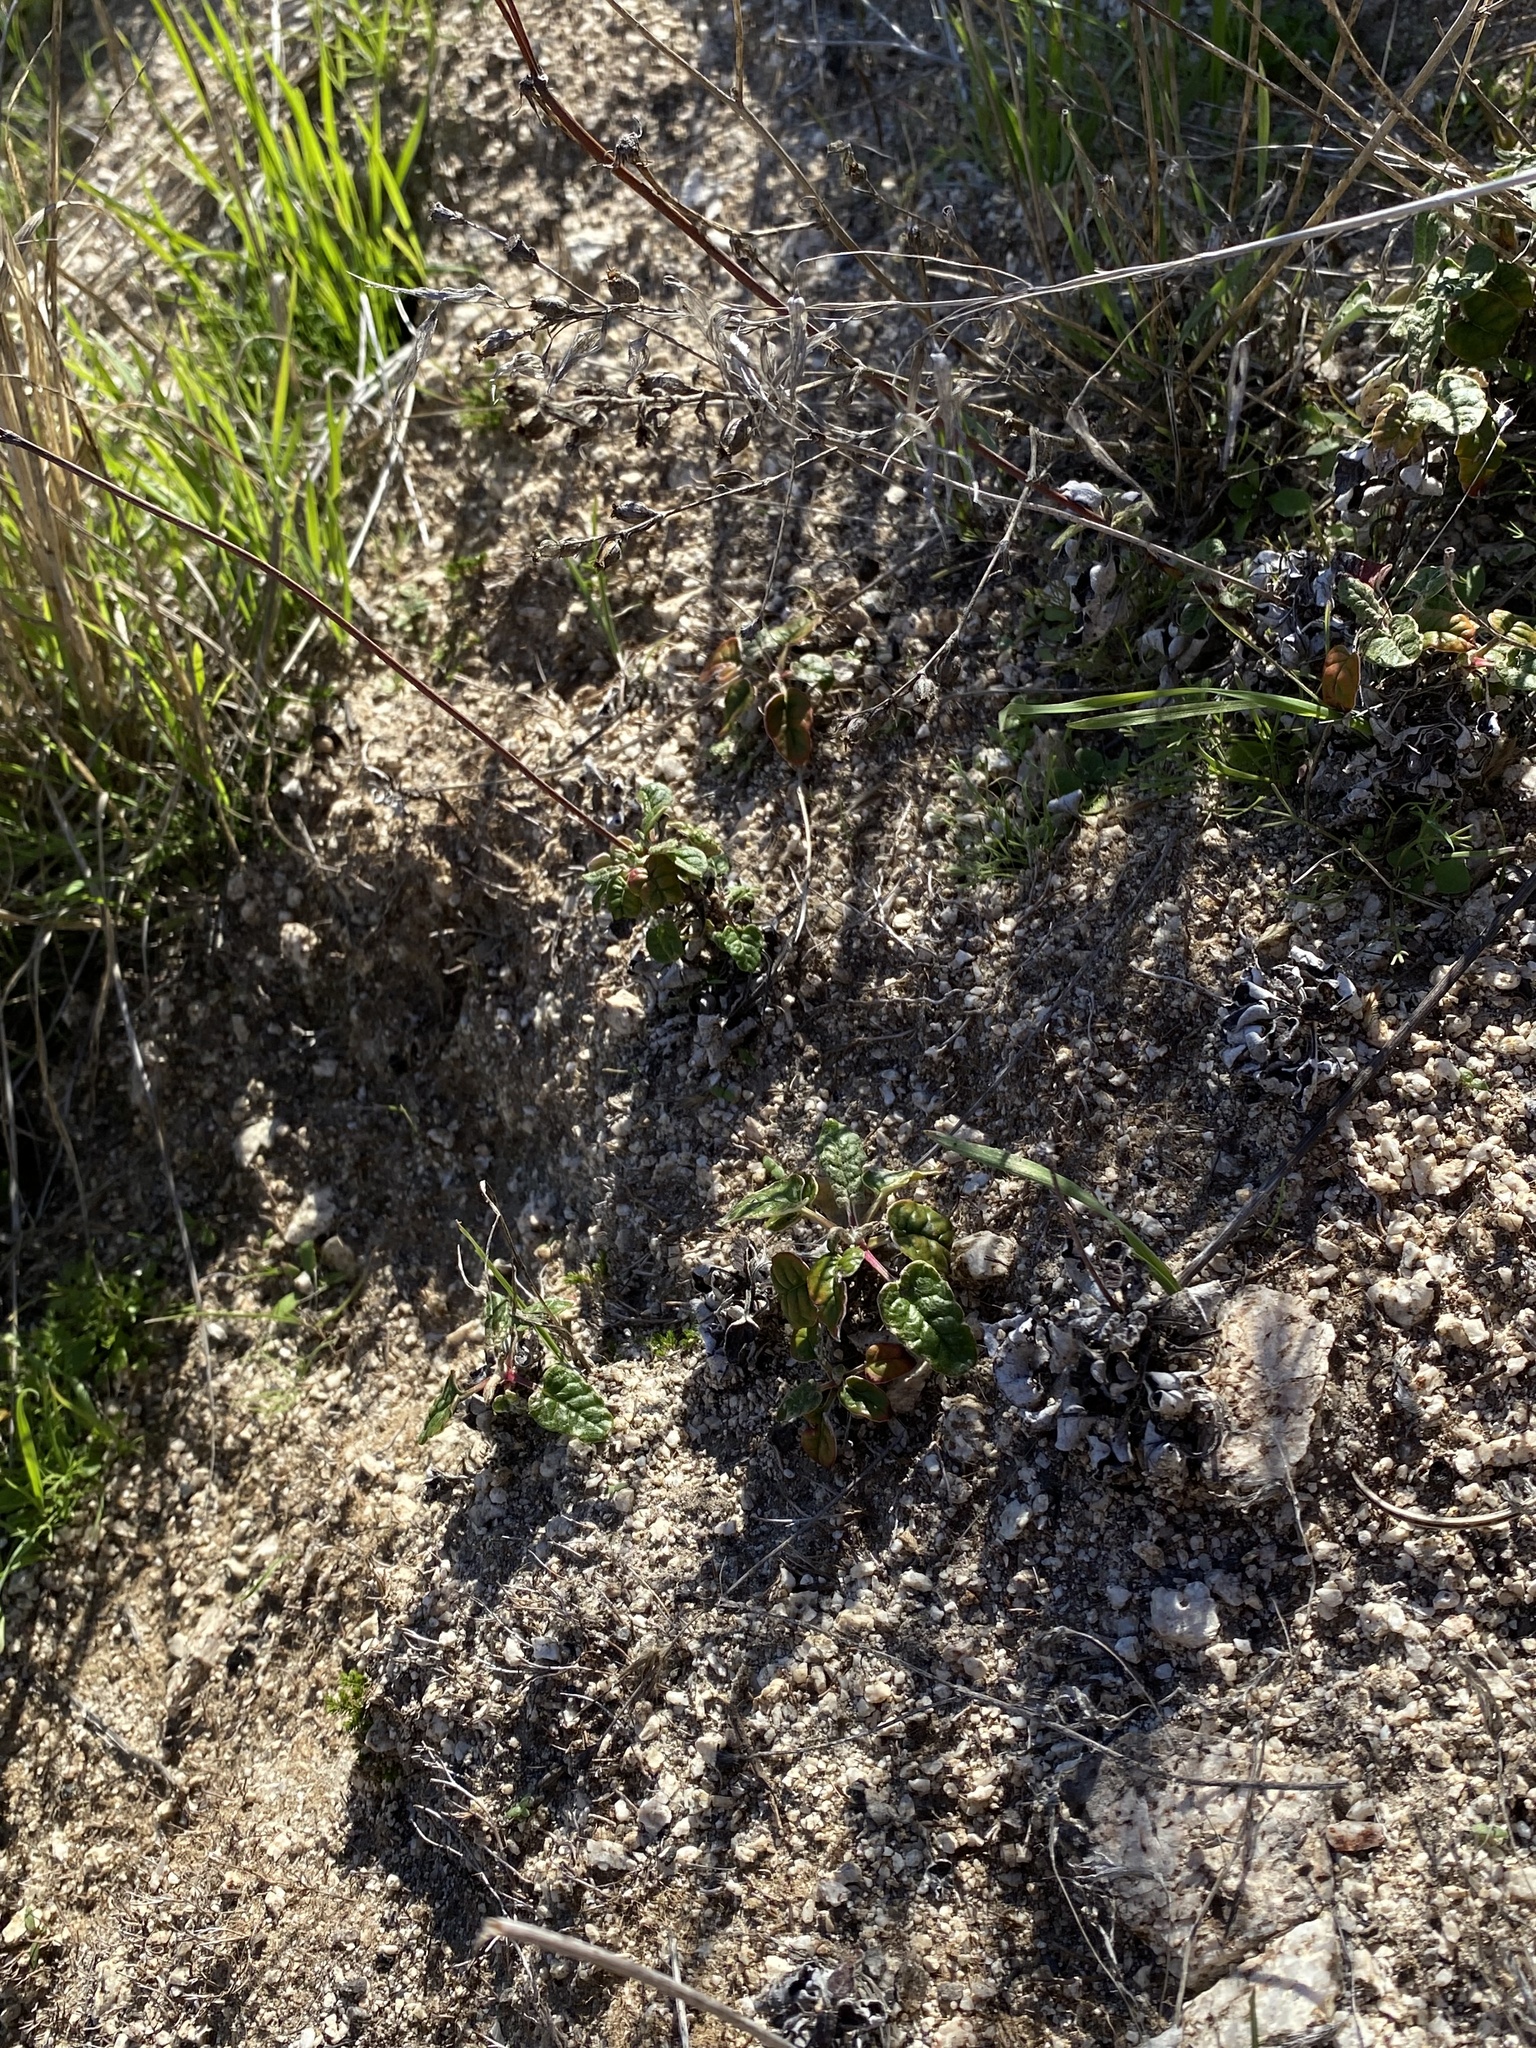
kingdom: Plantae
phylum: Tracheophyta
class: Magnoliopsida
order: Caryophyllales
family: Polygonaceae
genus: Eriogonum
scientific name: Eriogonum nudum
